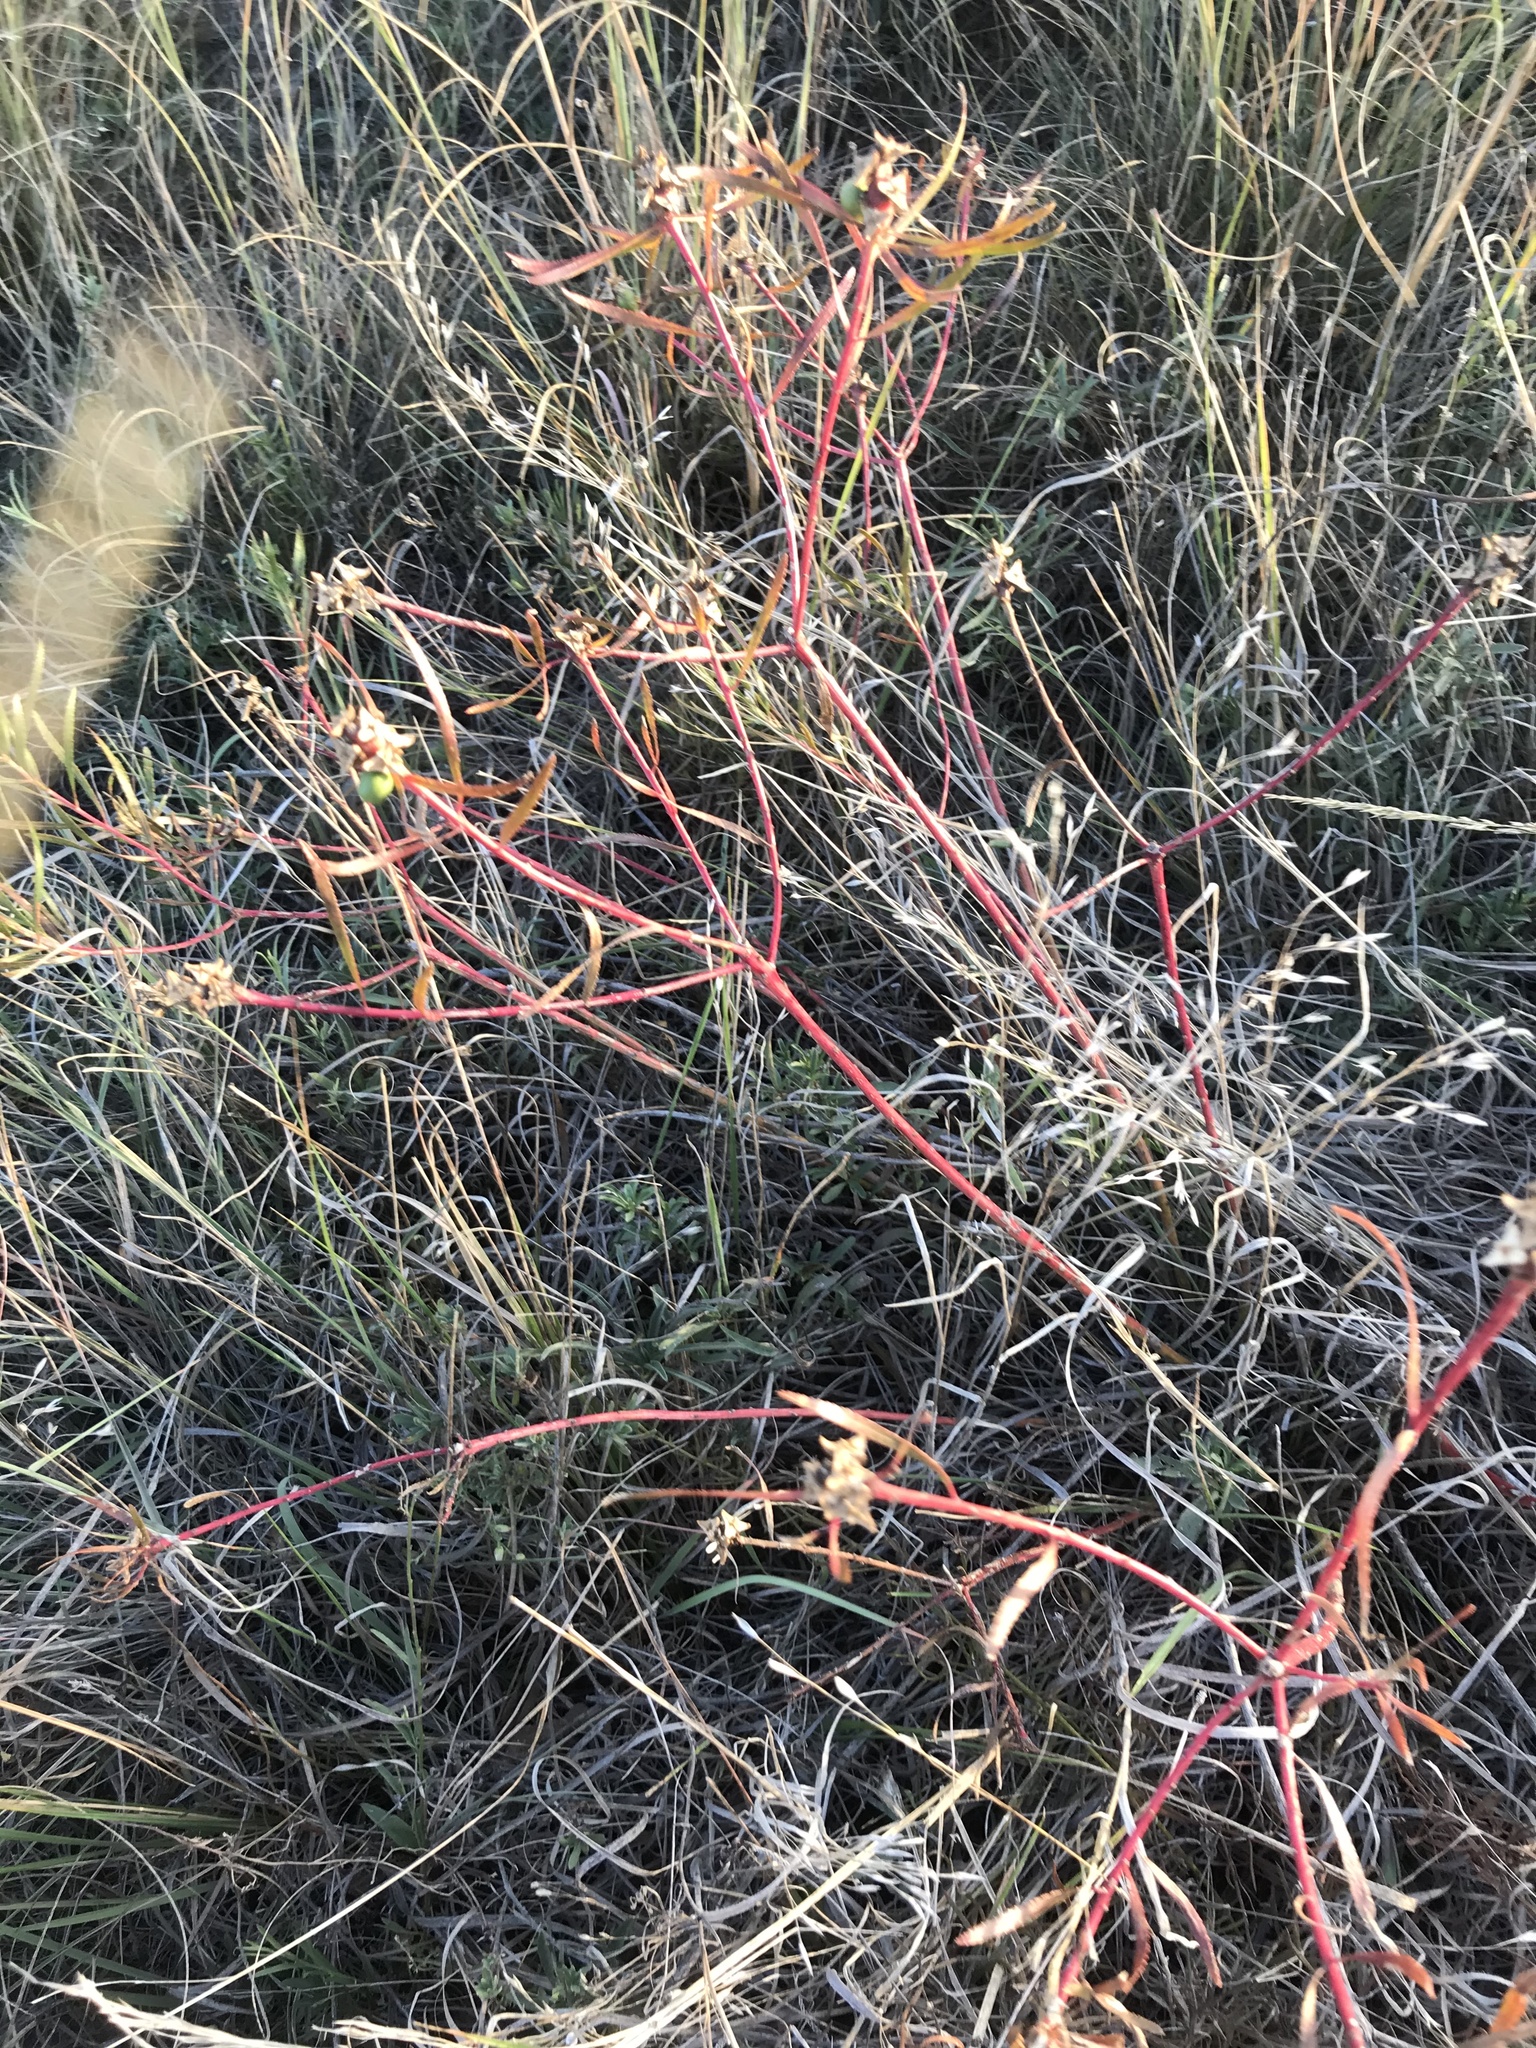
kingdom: Plantae
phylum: Tracheophyta
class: Magnoliopsida
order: Malpighiales
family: Euphorbiaceae
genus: Stillingia
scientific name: Stillingia texana
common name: Texas stillingia
